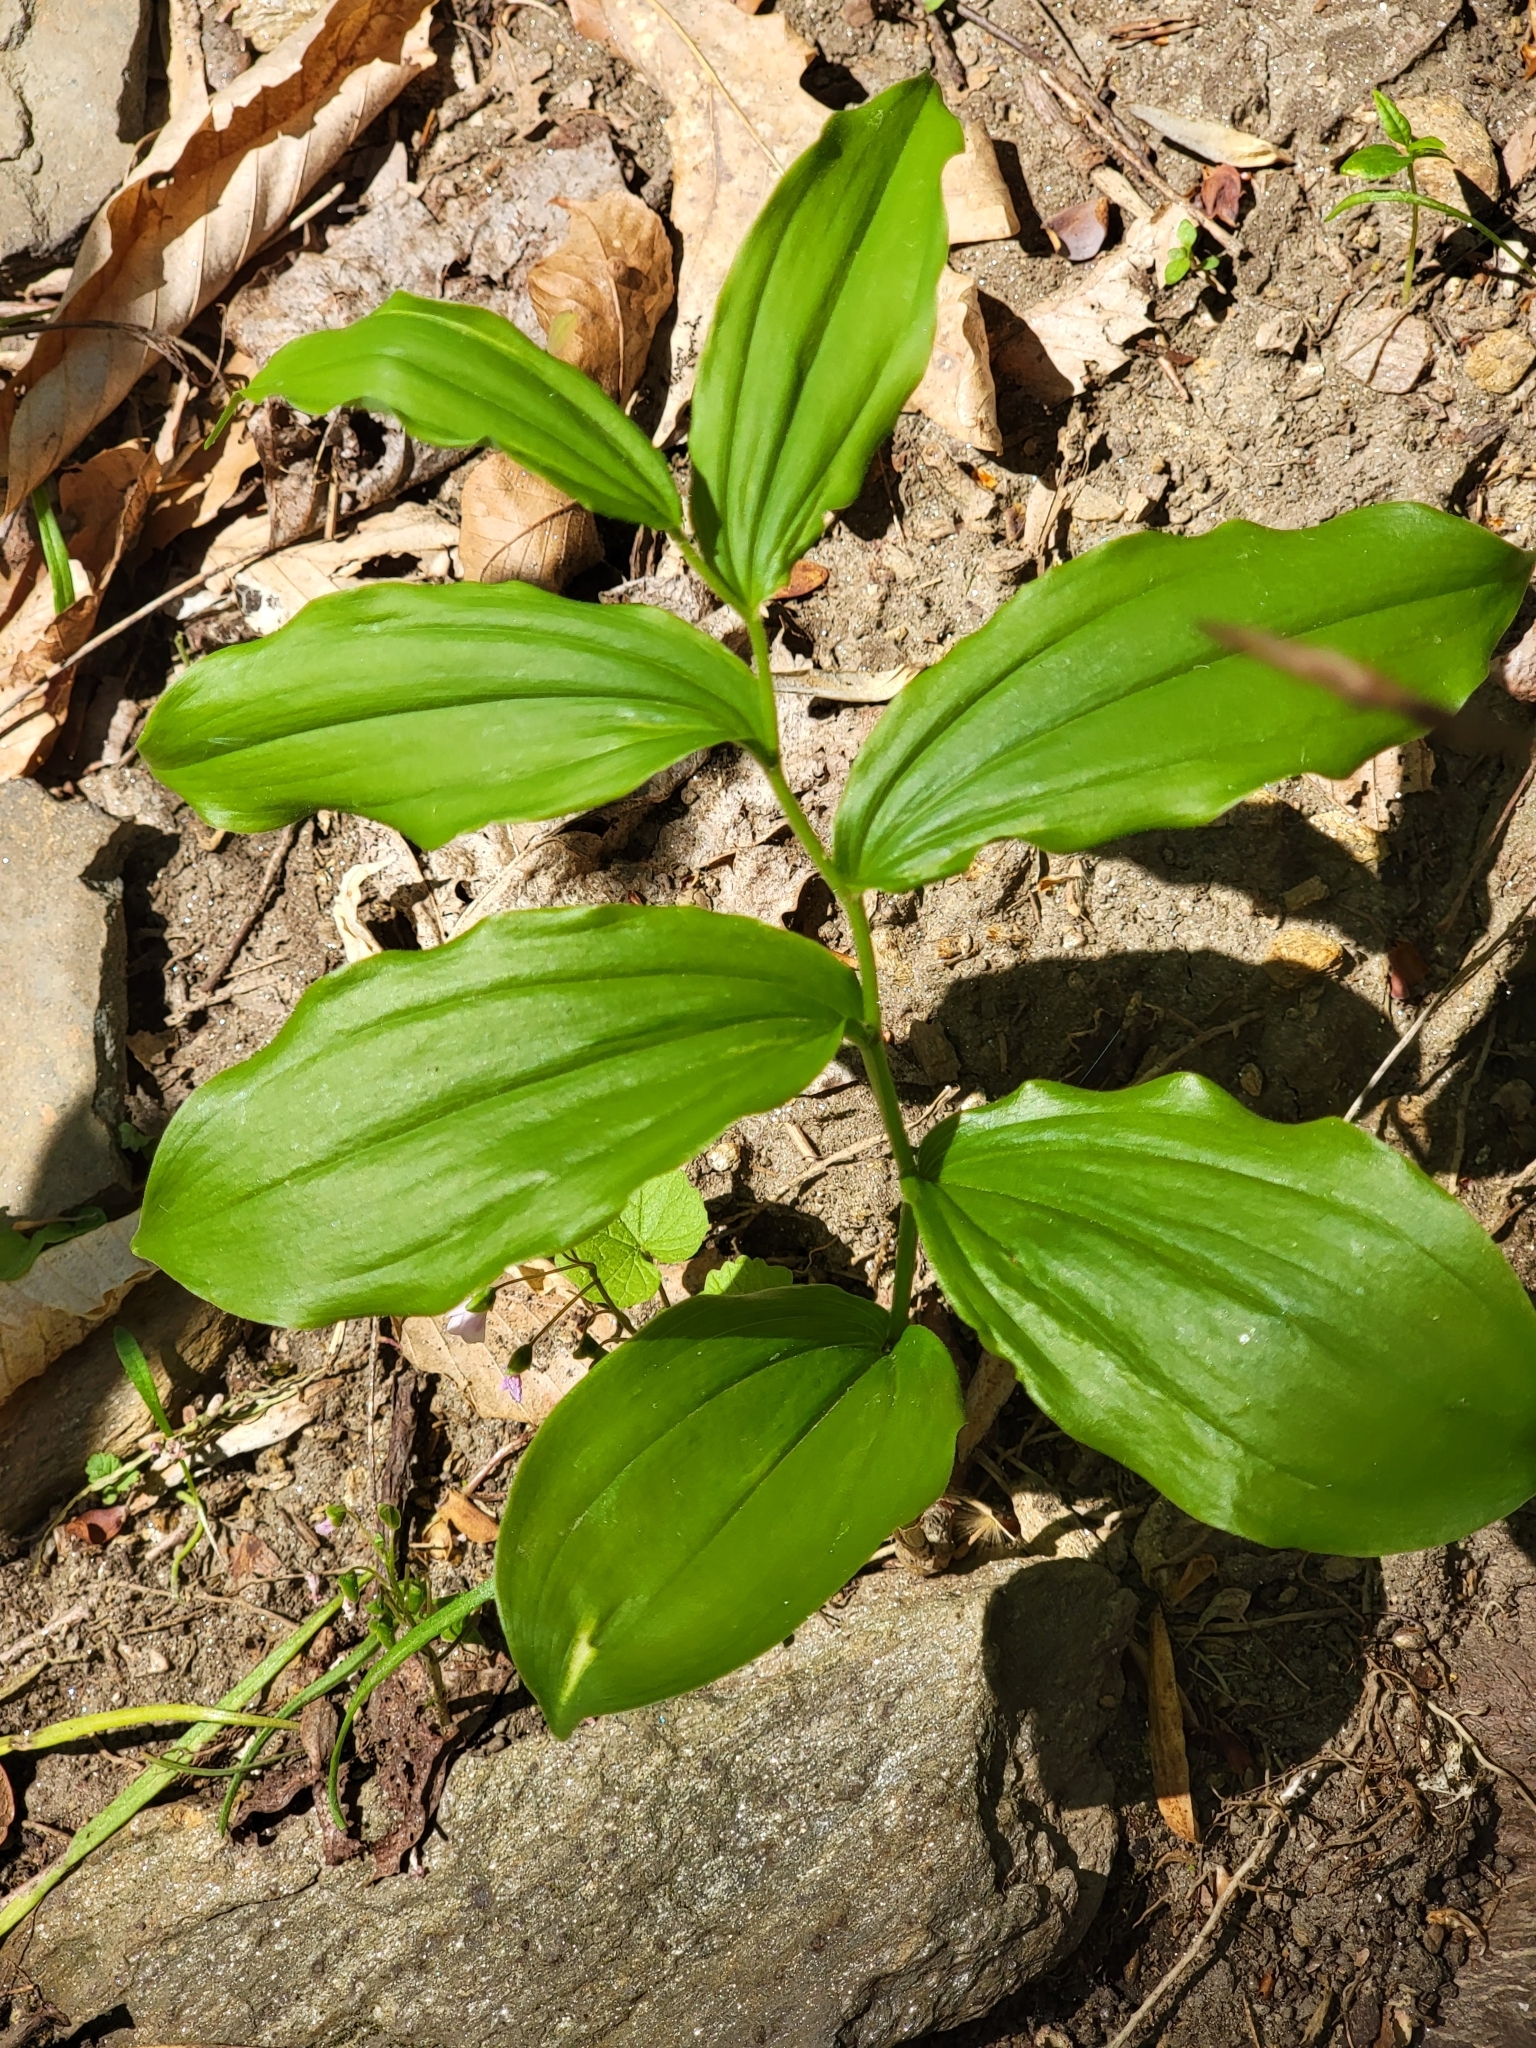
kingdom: Plantae
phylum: Tracheophyta
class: Liliopsida
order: Asparagales
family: Asparagaceae
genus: Maianthemum
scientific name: Maianthemum racemosum
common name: False spikenard
